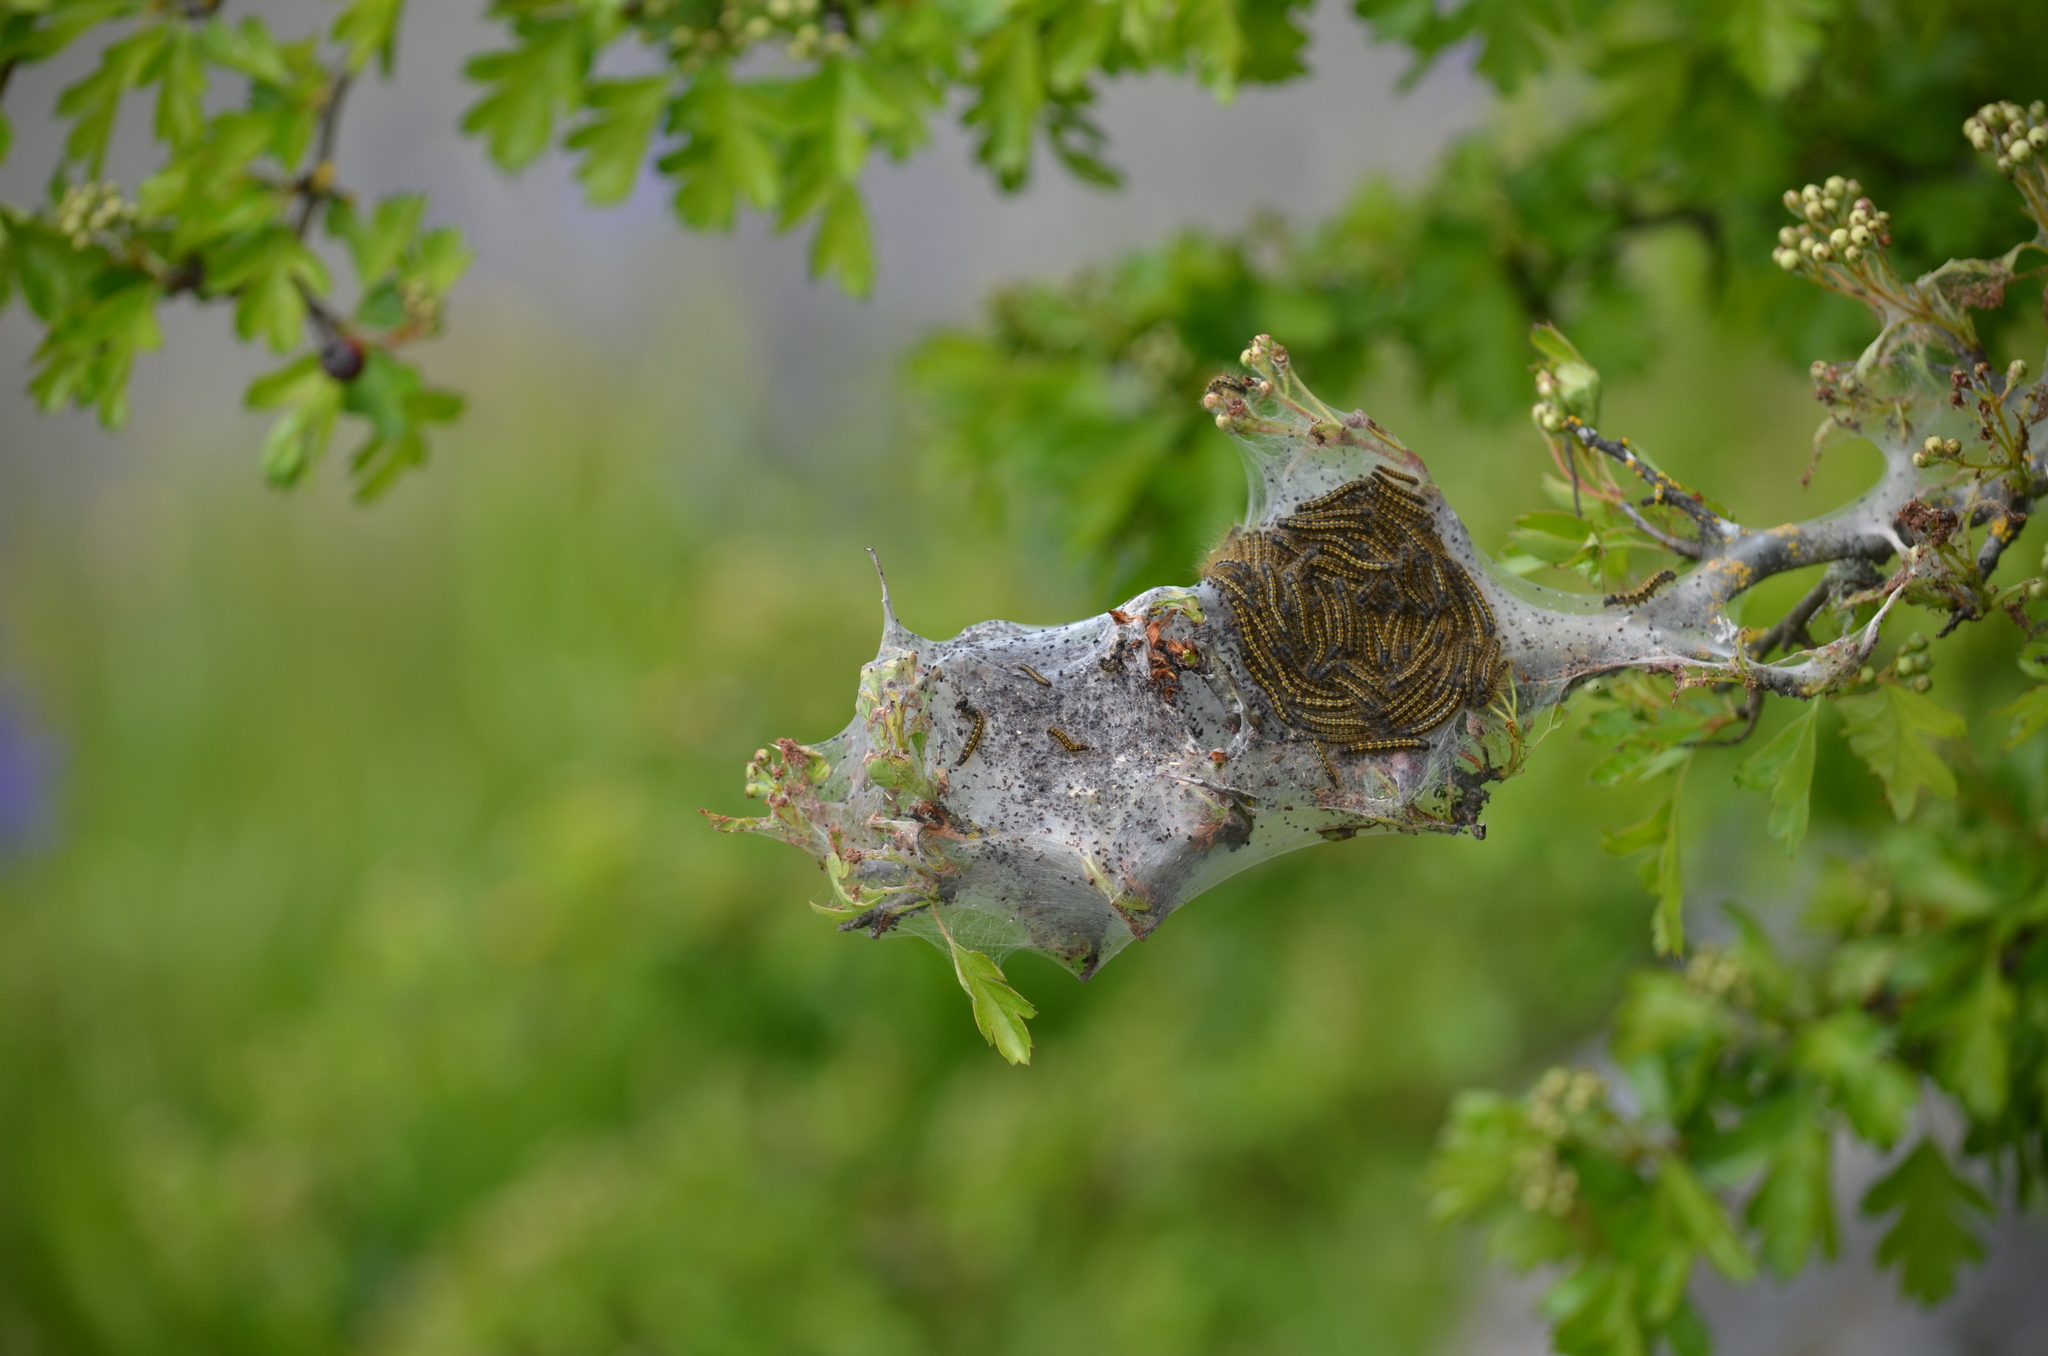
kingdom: Animalia
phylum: Arthropoda
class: Insecta
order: Lepidoptera
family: Lasiocampidae
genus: Malacosoma
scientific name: Malacosoma californica
